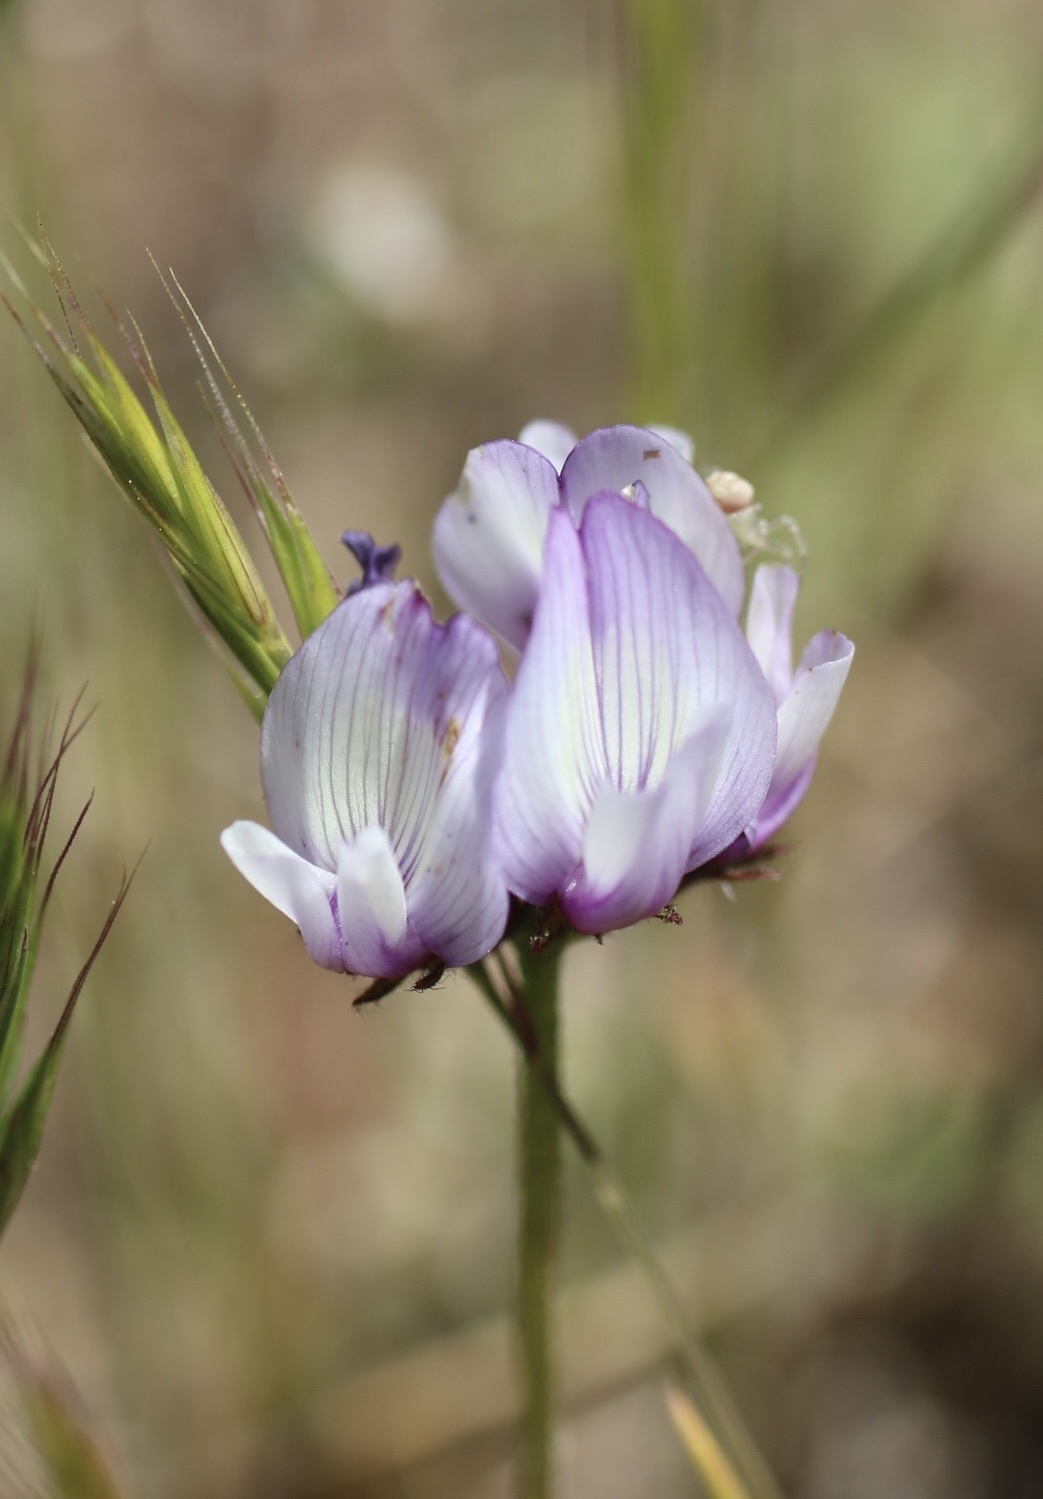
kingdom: Plantae
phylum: Tracheophyta
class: Magnoliopsida
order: Fabales
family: Fabaceae
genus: Astragalus
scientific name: Astragalus gambelianus
